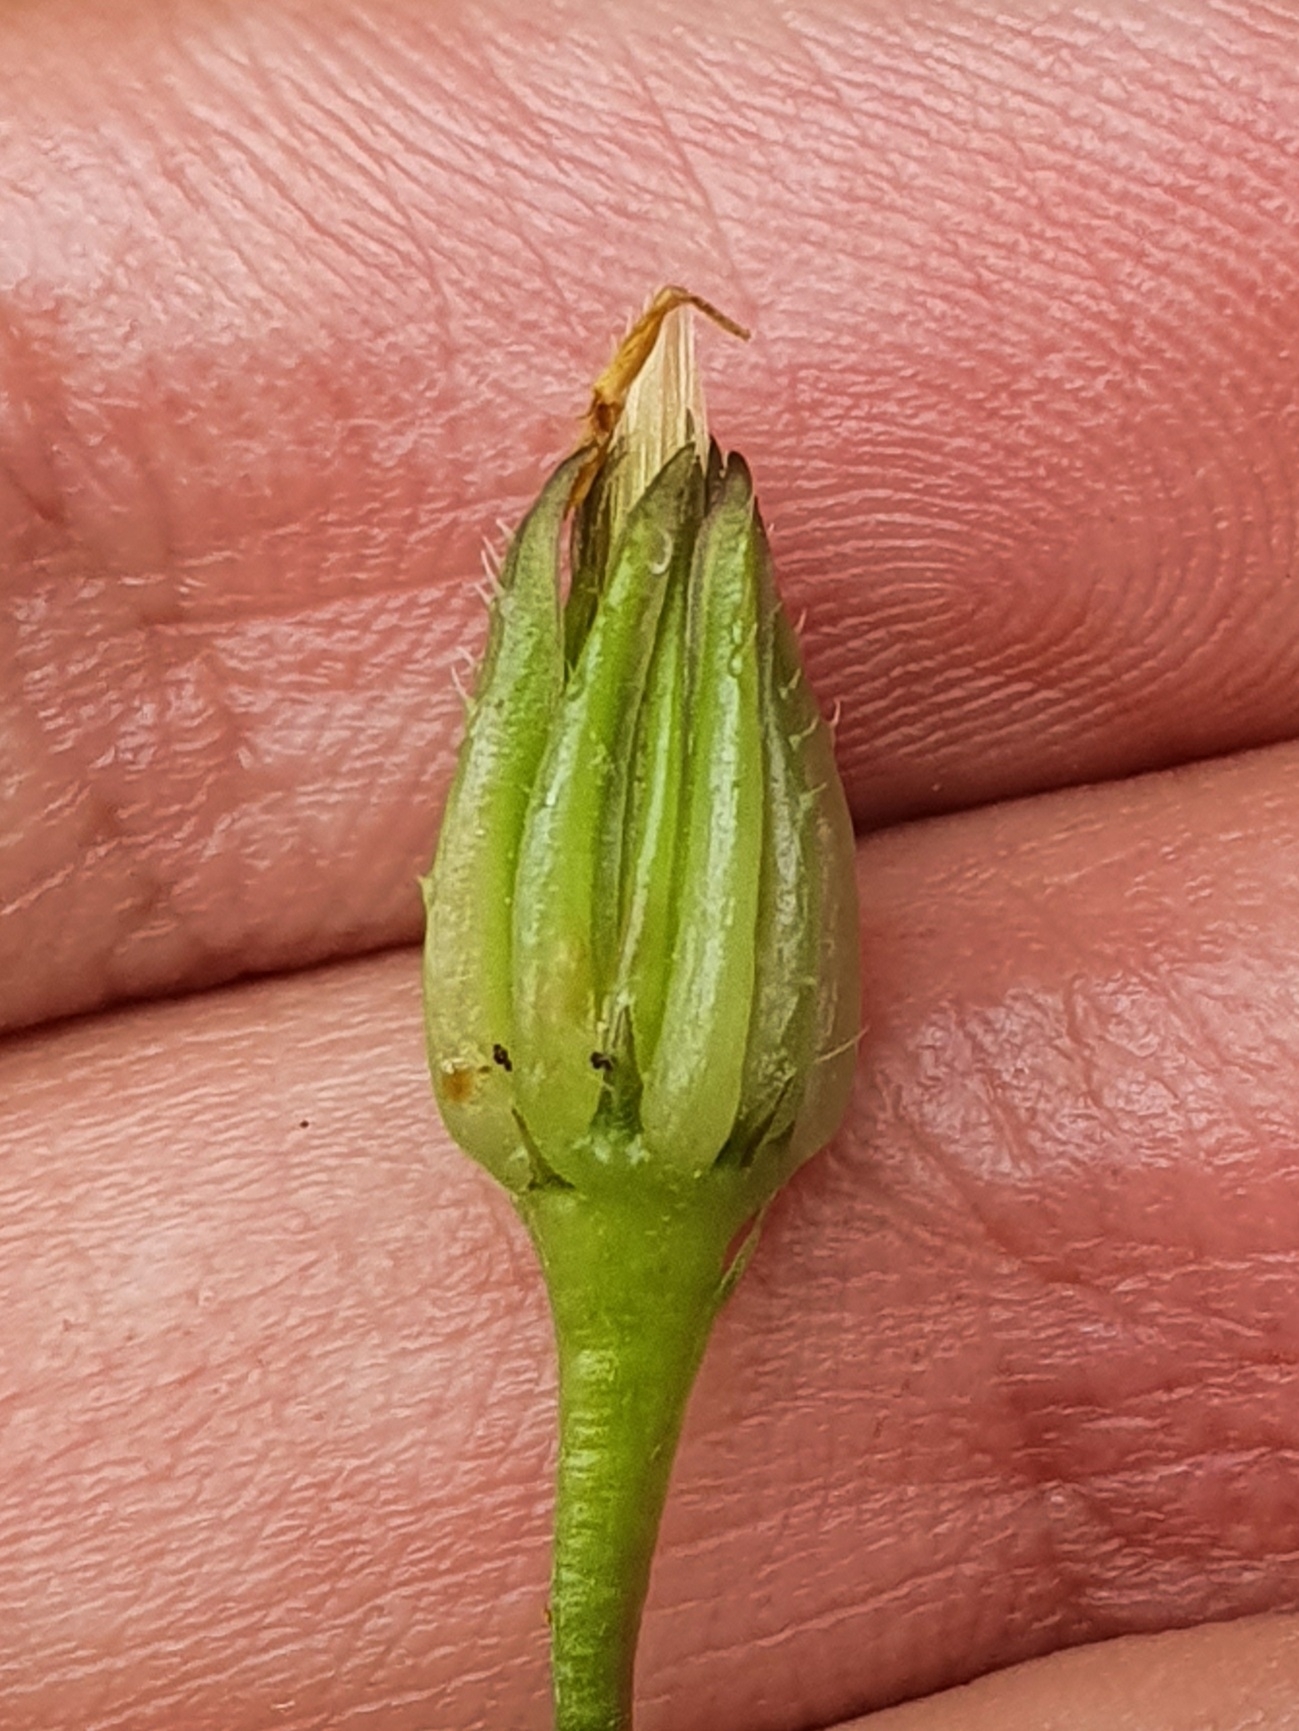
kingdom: Plantae
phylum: Tracheophyta
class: Magnoliopsida
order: Asterales
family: Asteraceae
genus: Hedypnois
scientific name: Hedypnois rhagadioloides
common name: Cretan weed
